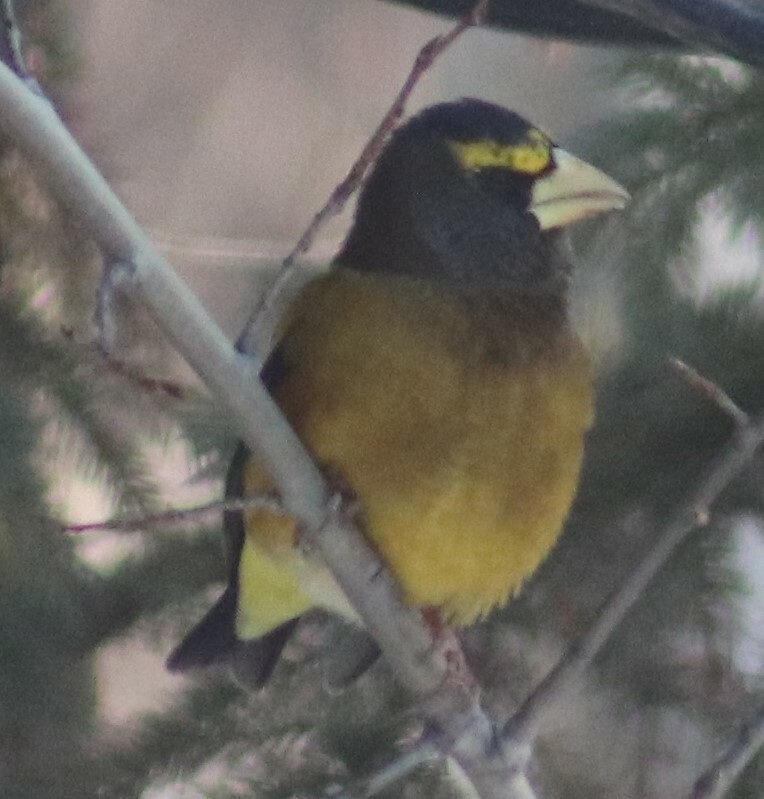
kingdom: Animalia
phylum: Chordata
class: Aves
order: Passeriformes
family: Fringillidae
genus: Hesperiphona
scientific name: Hesperiphona vespertina
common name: Evening grosbeak
